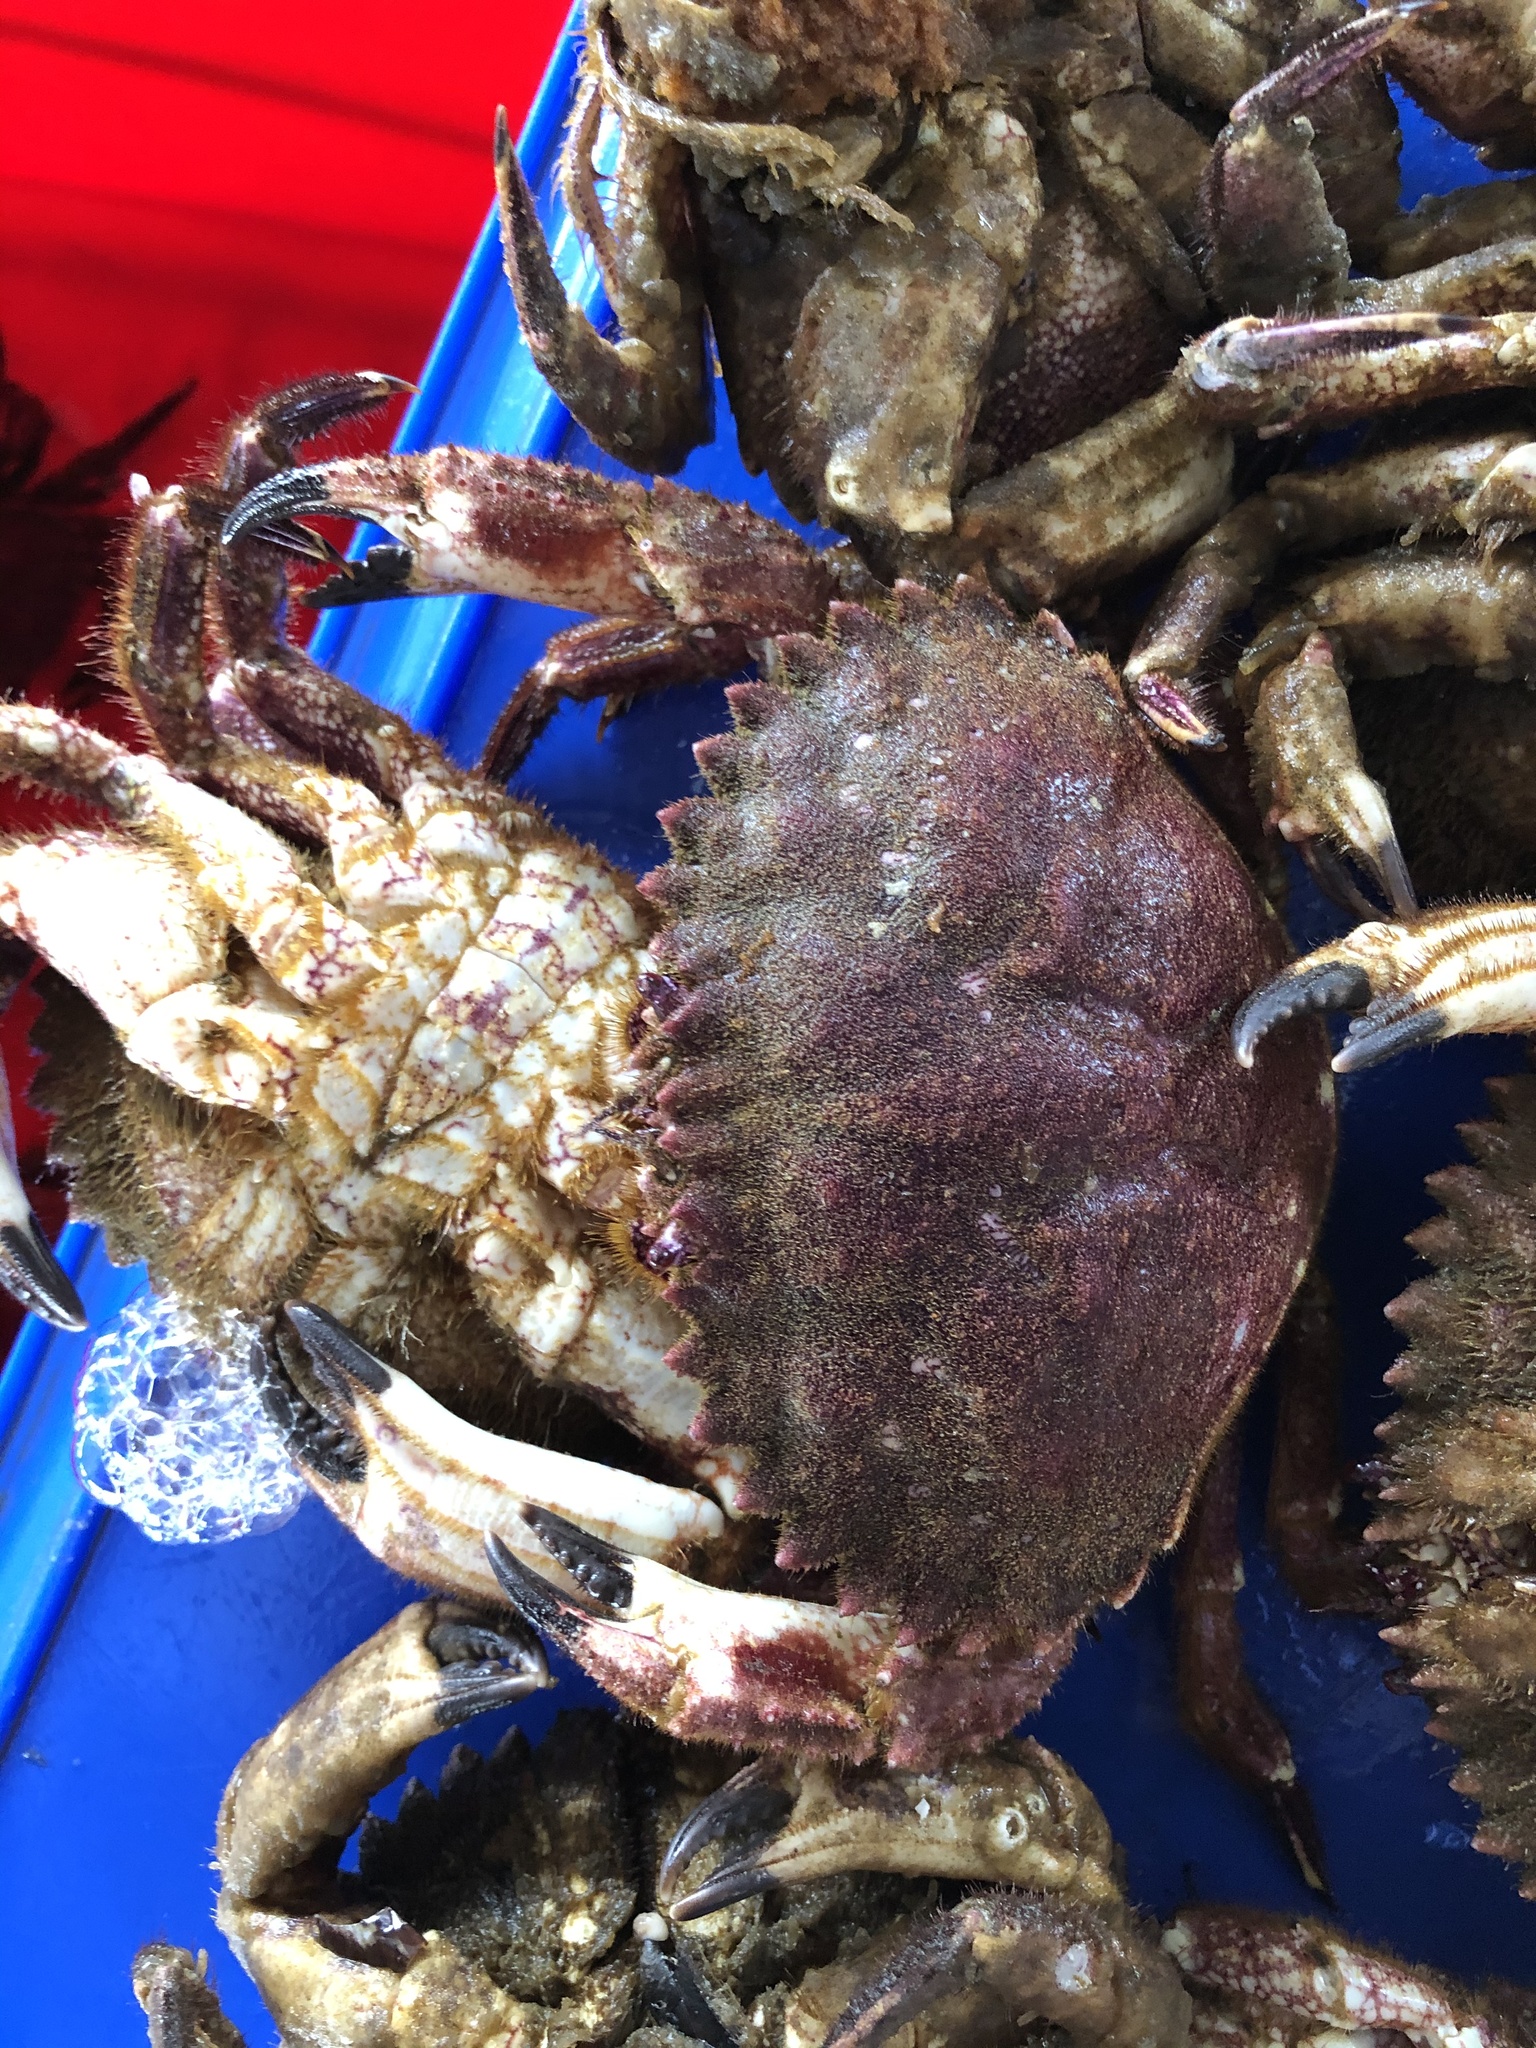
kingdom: Animalia
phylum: Arthropoda
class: Malacostraca
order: Decapoda
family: Cancridae
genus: Romaleon
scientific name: Romaleon setosum
